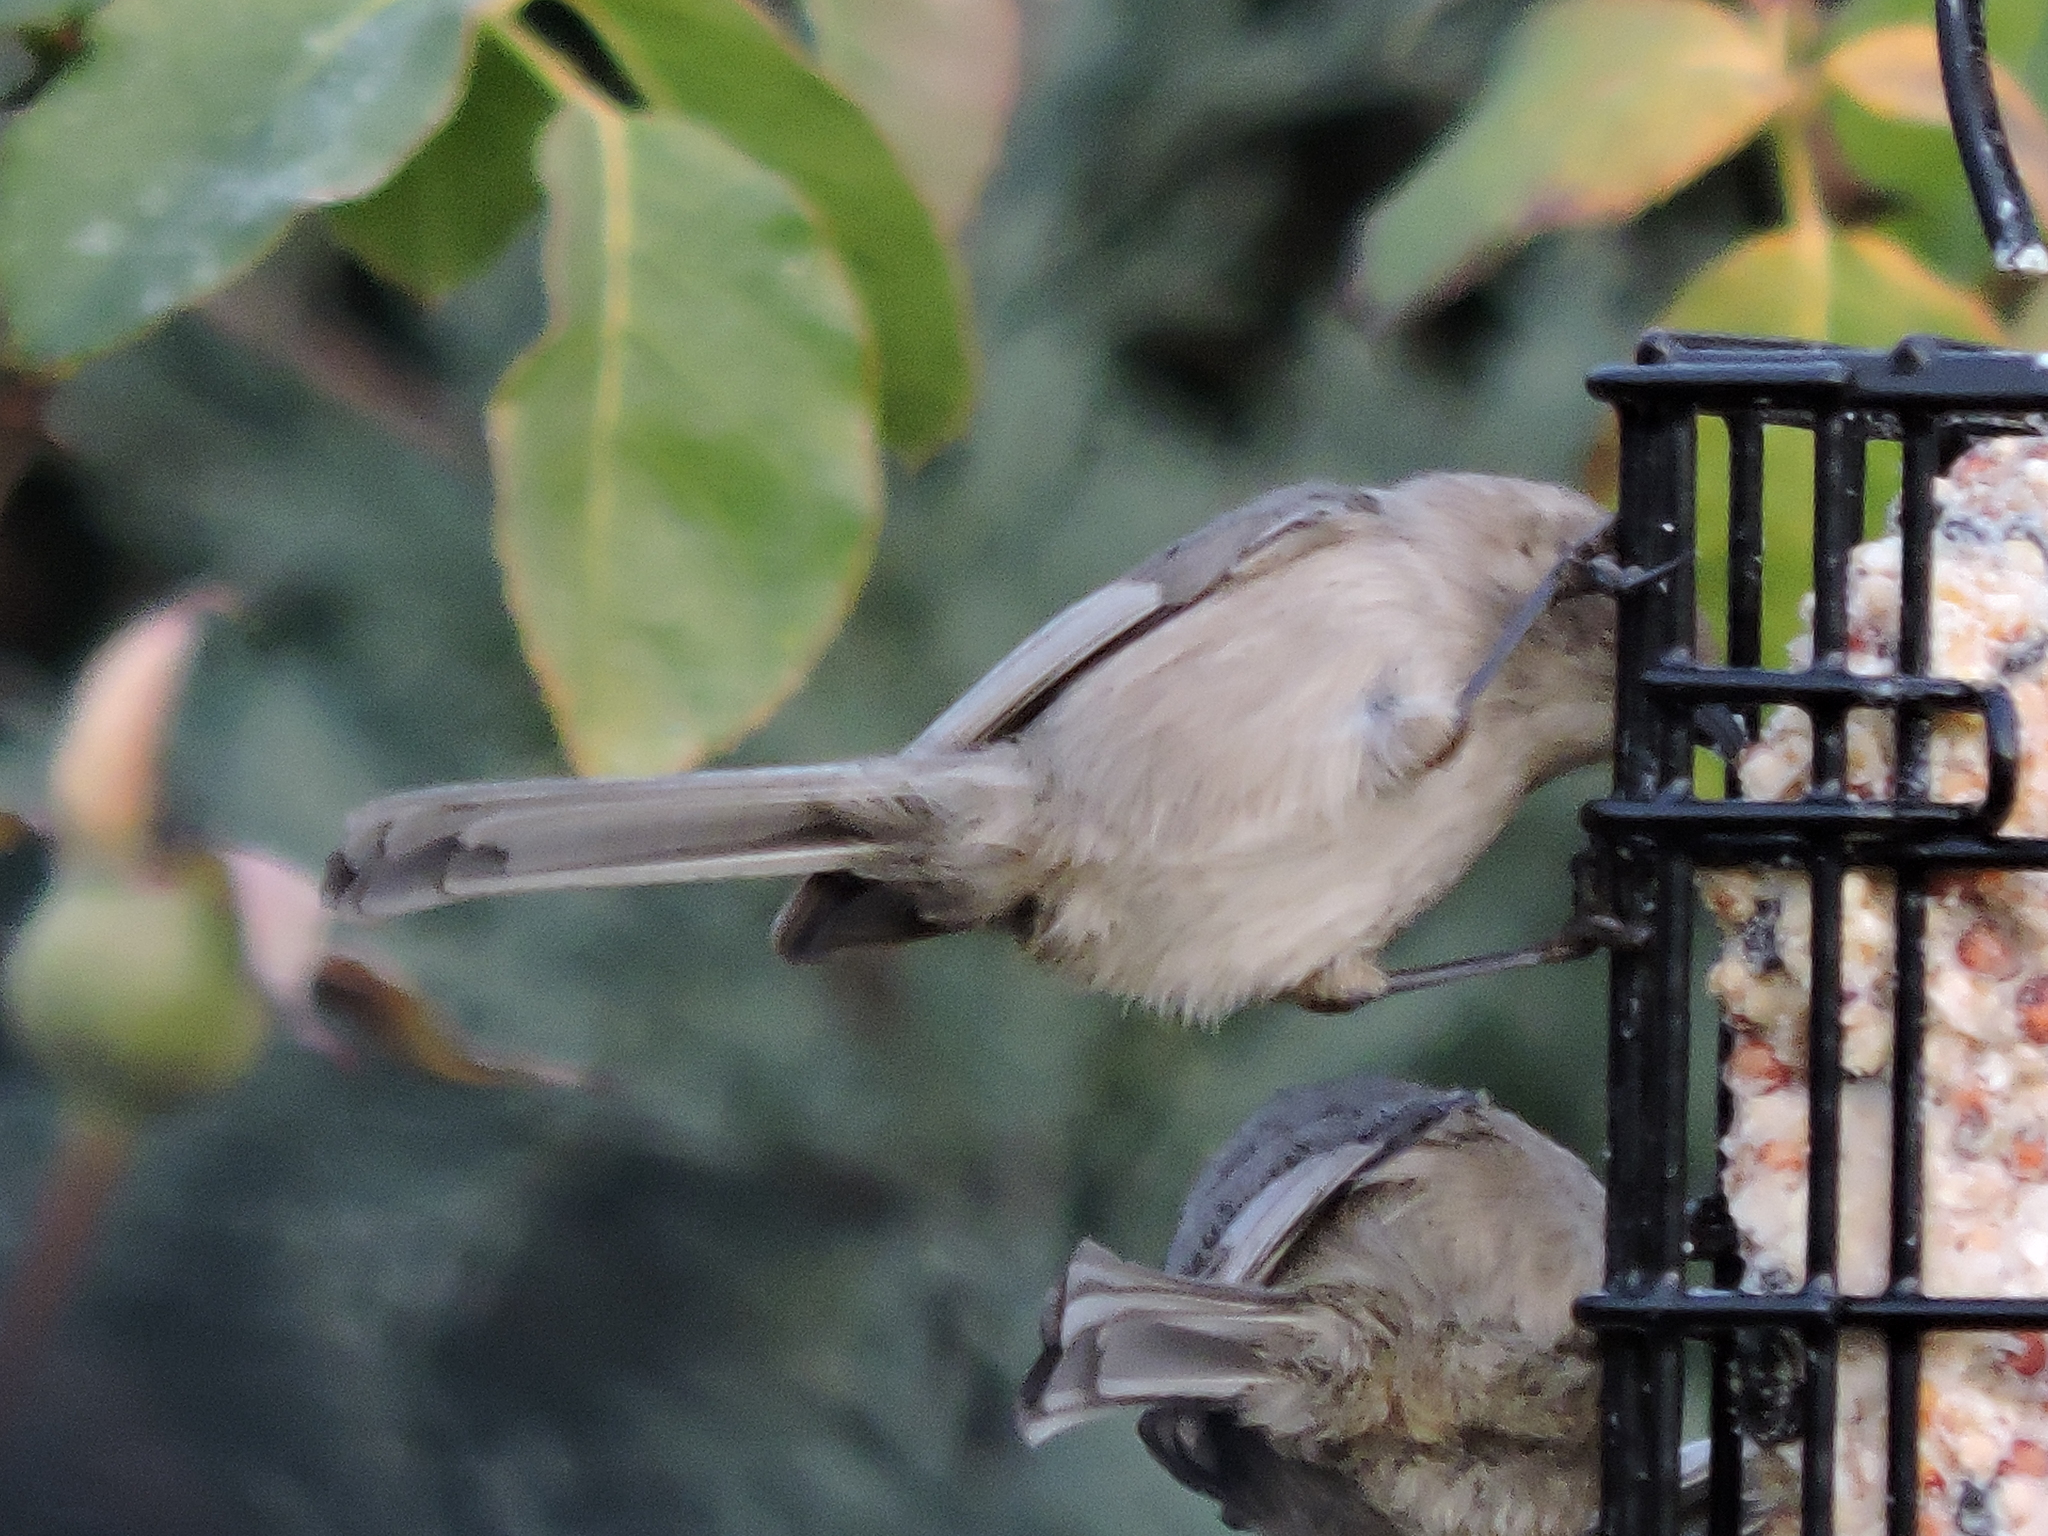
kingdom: Animalia
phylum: Chordata
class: Aves
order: Passeriformes
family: Aegithalidae
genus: Psaltriparus
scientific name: Psaltriparus minimus
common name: American bushtit
